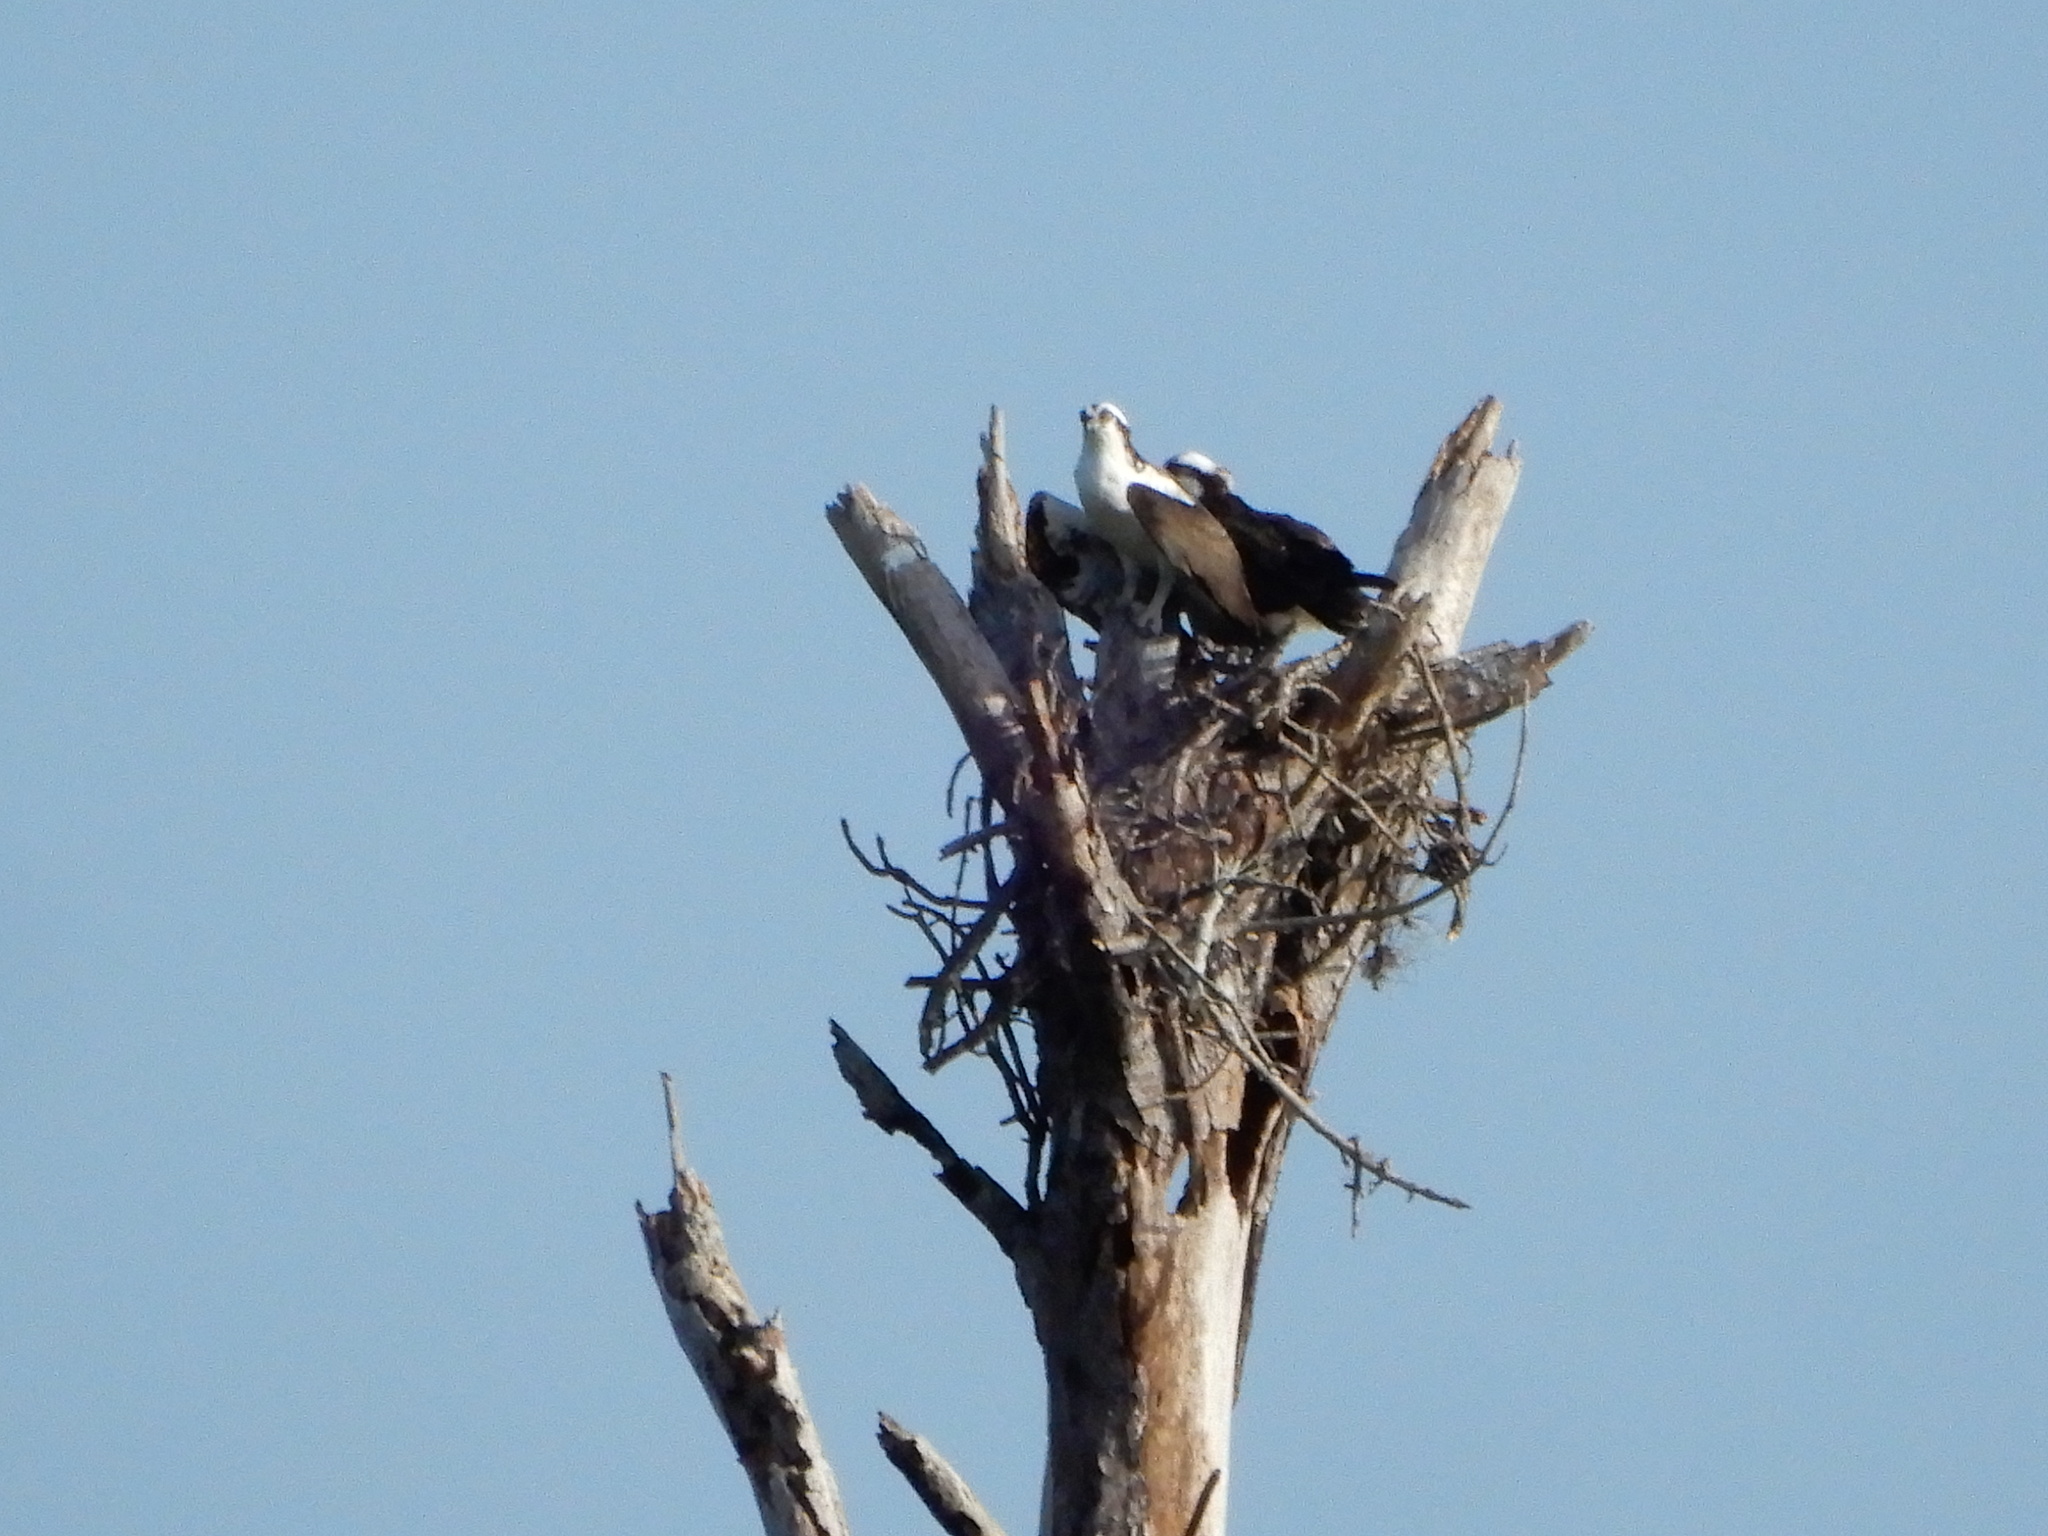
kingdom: Animalia
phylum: Chordata
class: Aves
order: Accipitriformes
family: Pandionidae
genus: Pandion
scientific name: Pandion haliaetus
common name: Osprey
